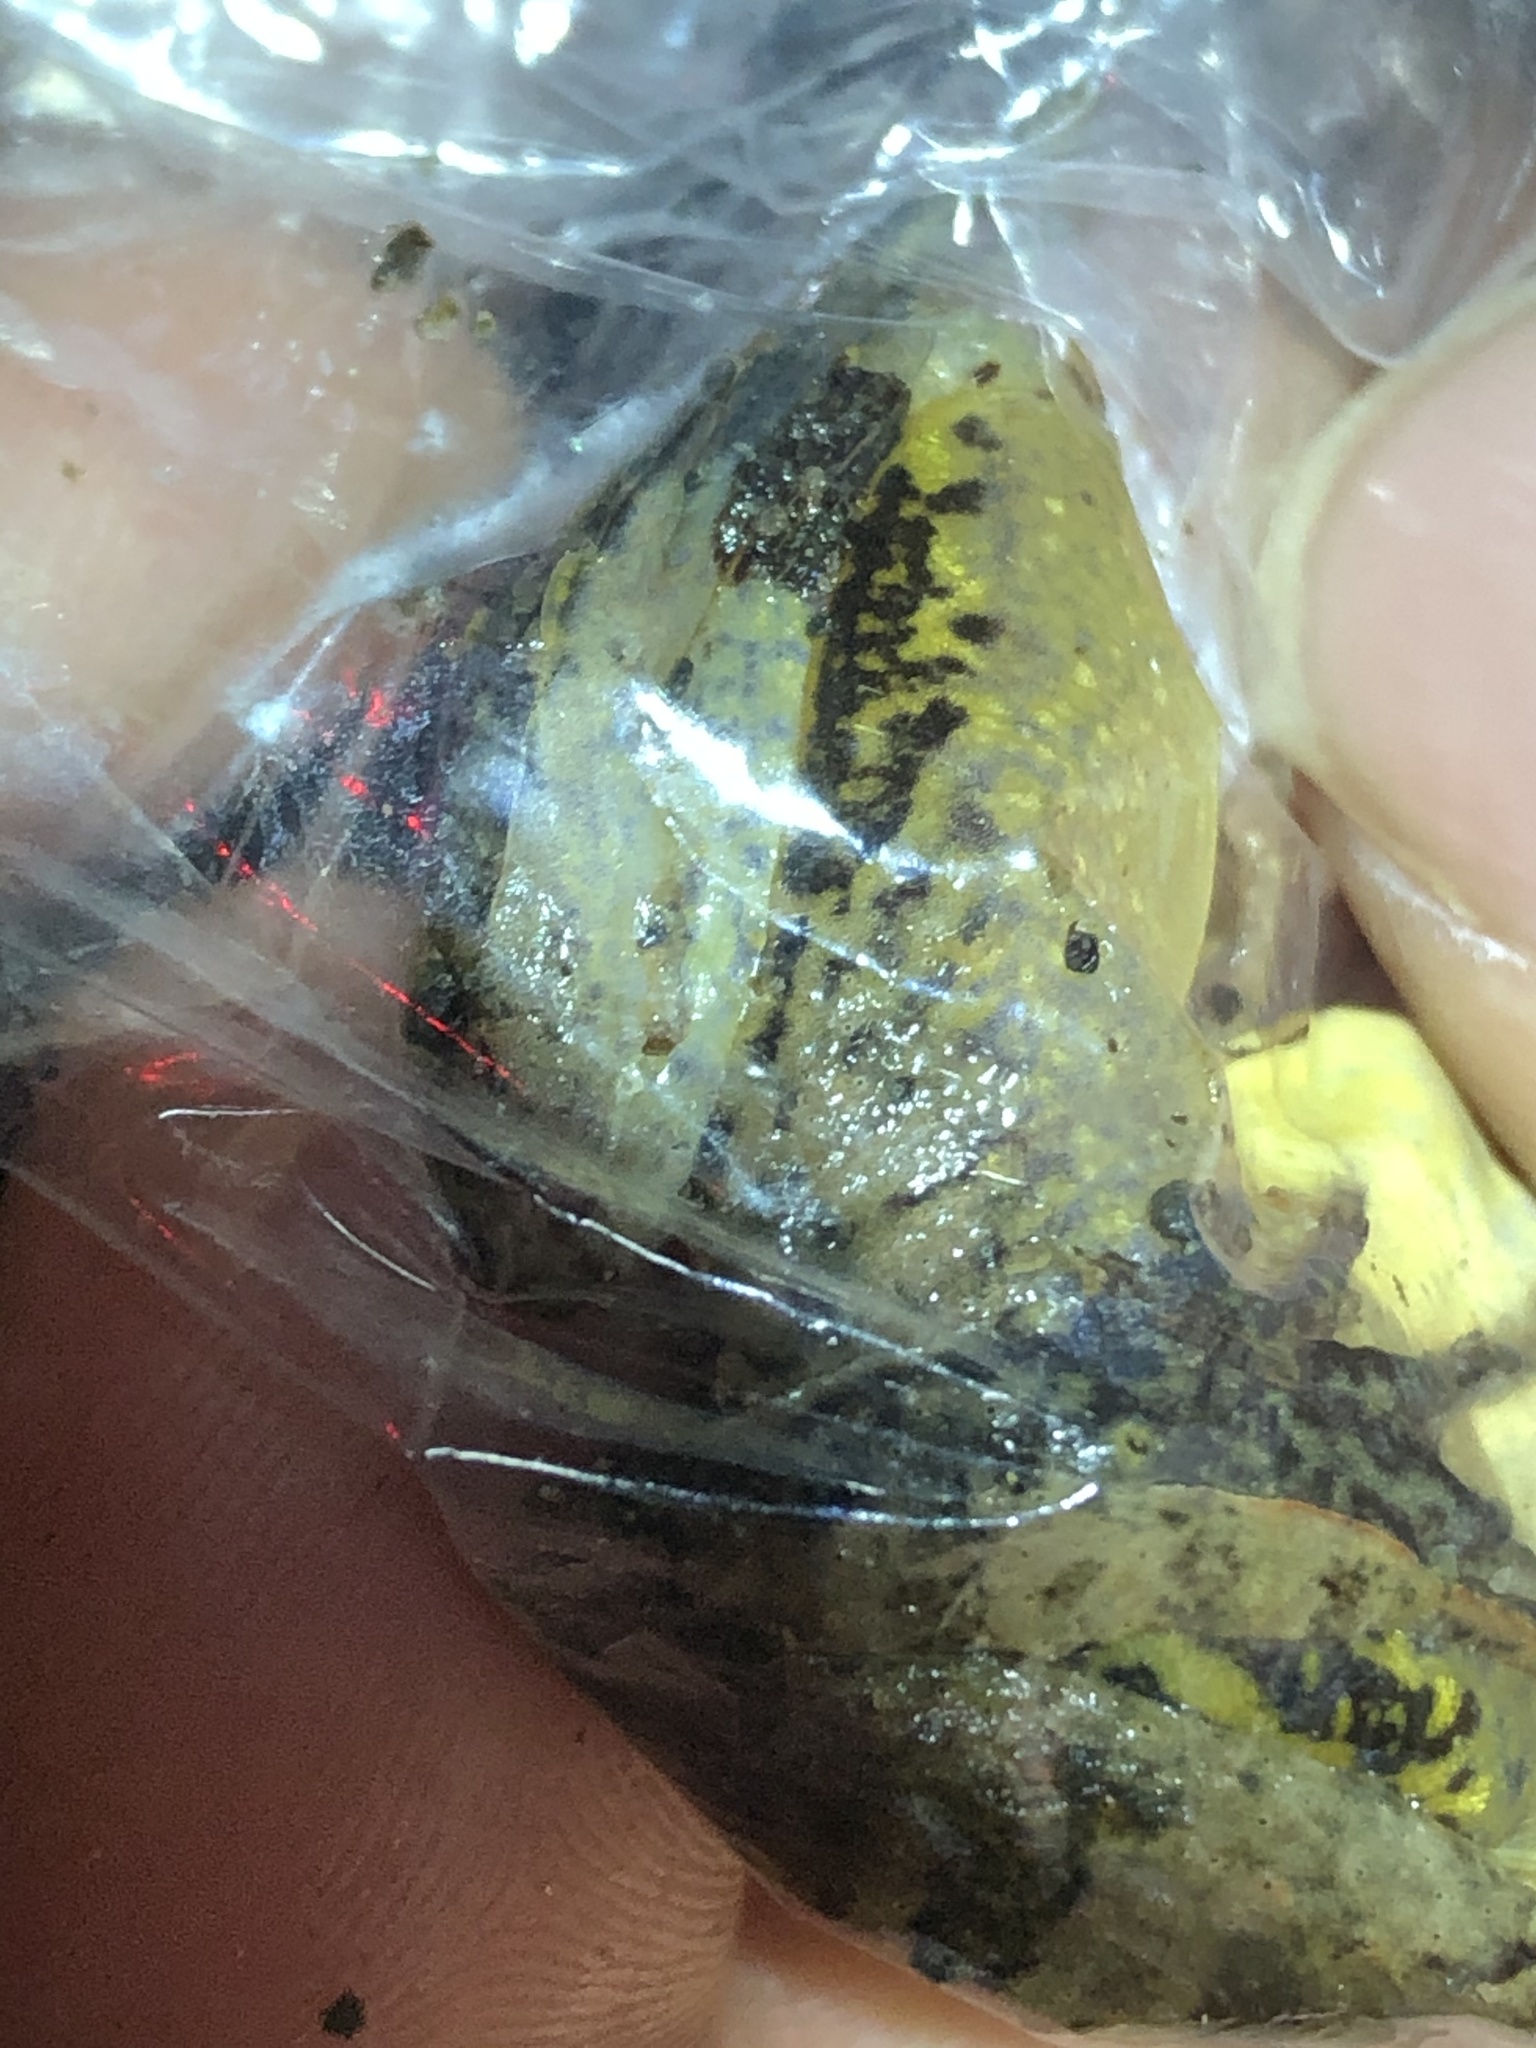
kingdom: Animalia
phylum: Chordata
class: Amphibia
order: Anura
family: Leptodactylidae
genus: Leptodactylus
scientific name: Leptodactylus leptodactyloides
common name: Common thin-toed frog
